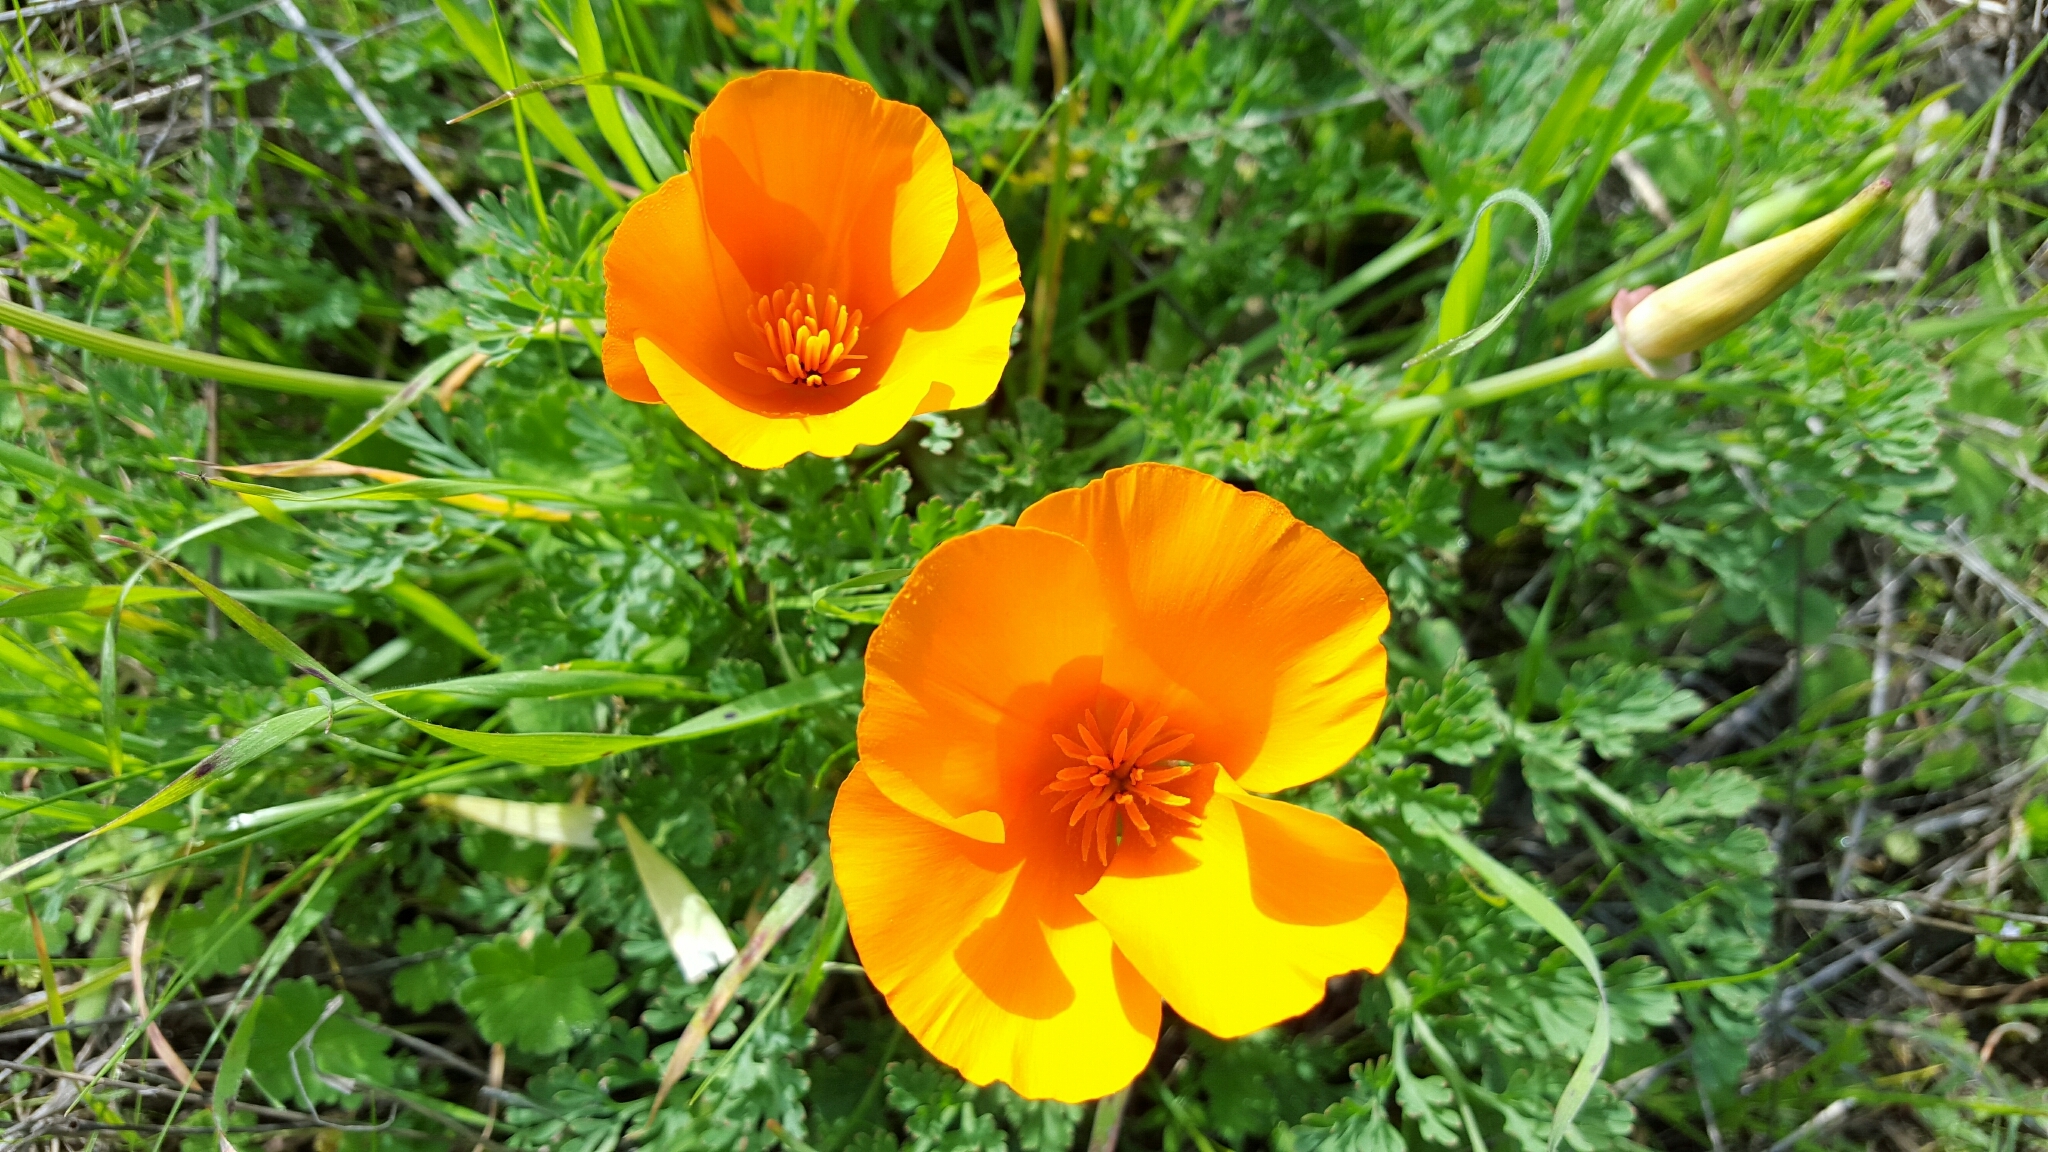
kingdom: Plantae
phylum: Tracheophyta
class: Magnoliopsida
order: Ranunculales
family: Papaveraceae
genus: Eschscholzia
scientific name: Eschscholzia californica
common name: California poppy
